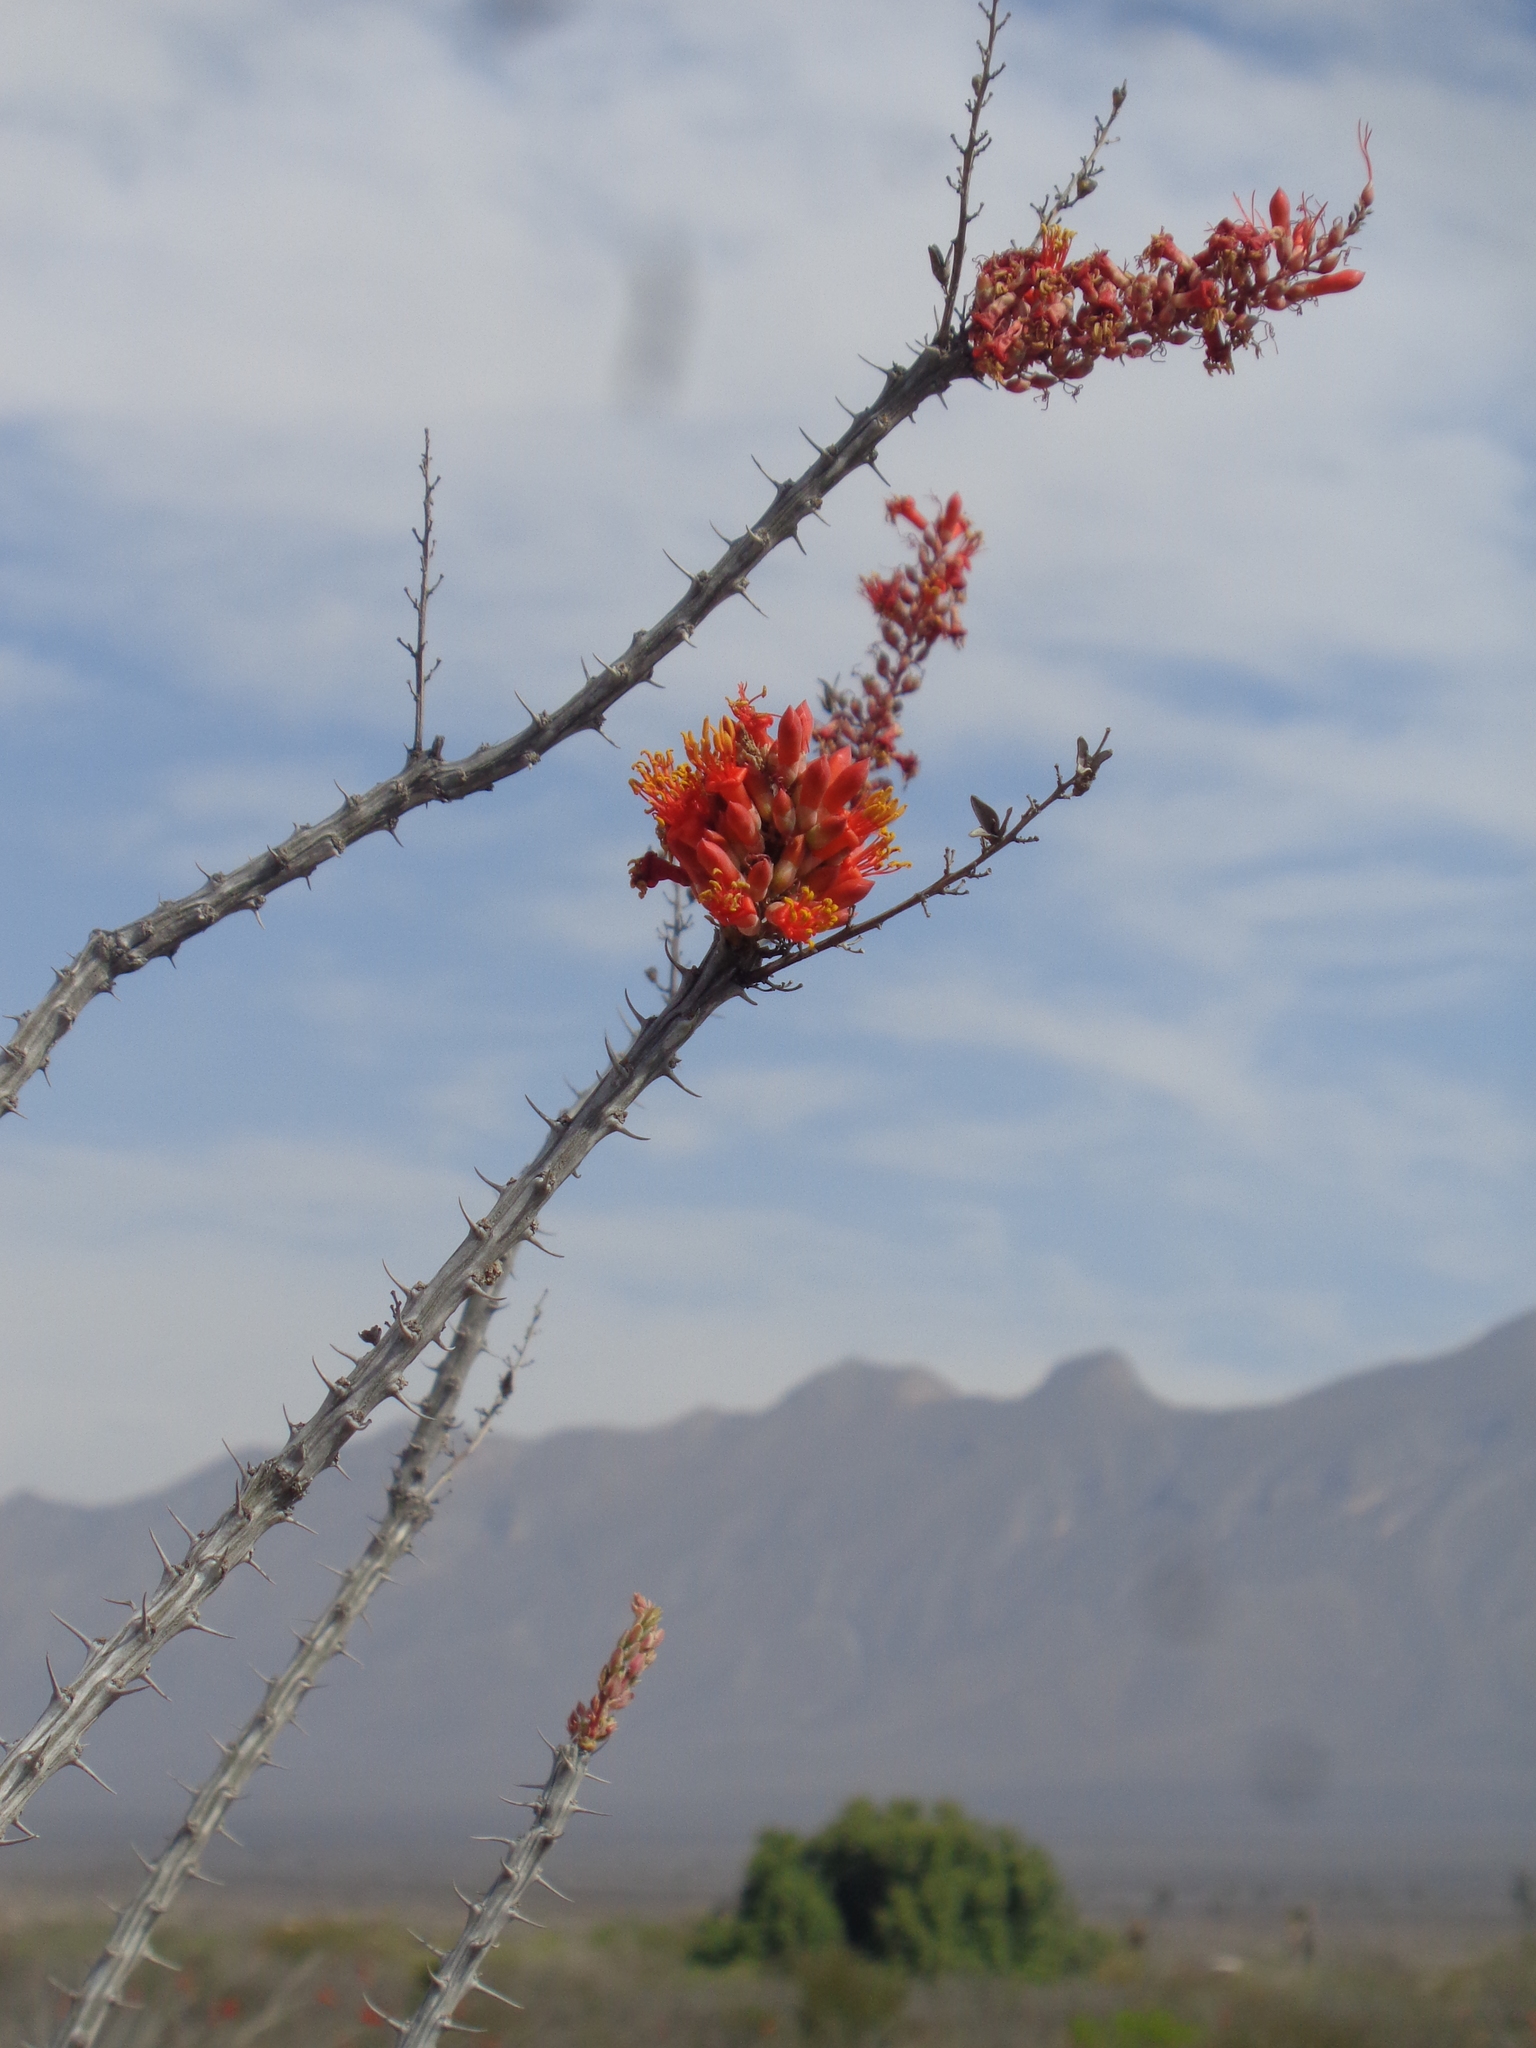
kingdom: Plantae
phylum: Tracheophyta
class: Magnoliopsida
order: Ericales
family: Fouquieriaceae
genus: Fouquieria
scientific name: Fouquieria splendens
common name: Vine-cactus
